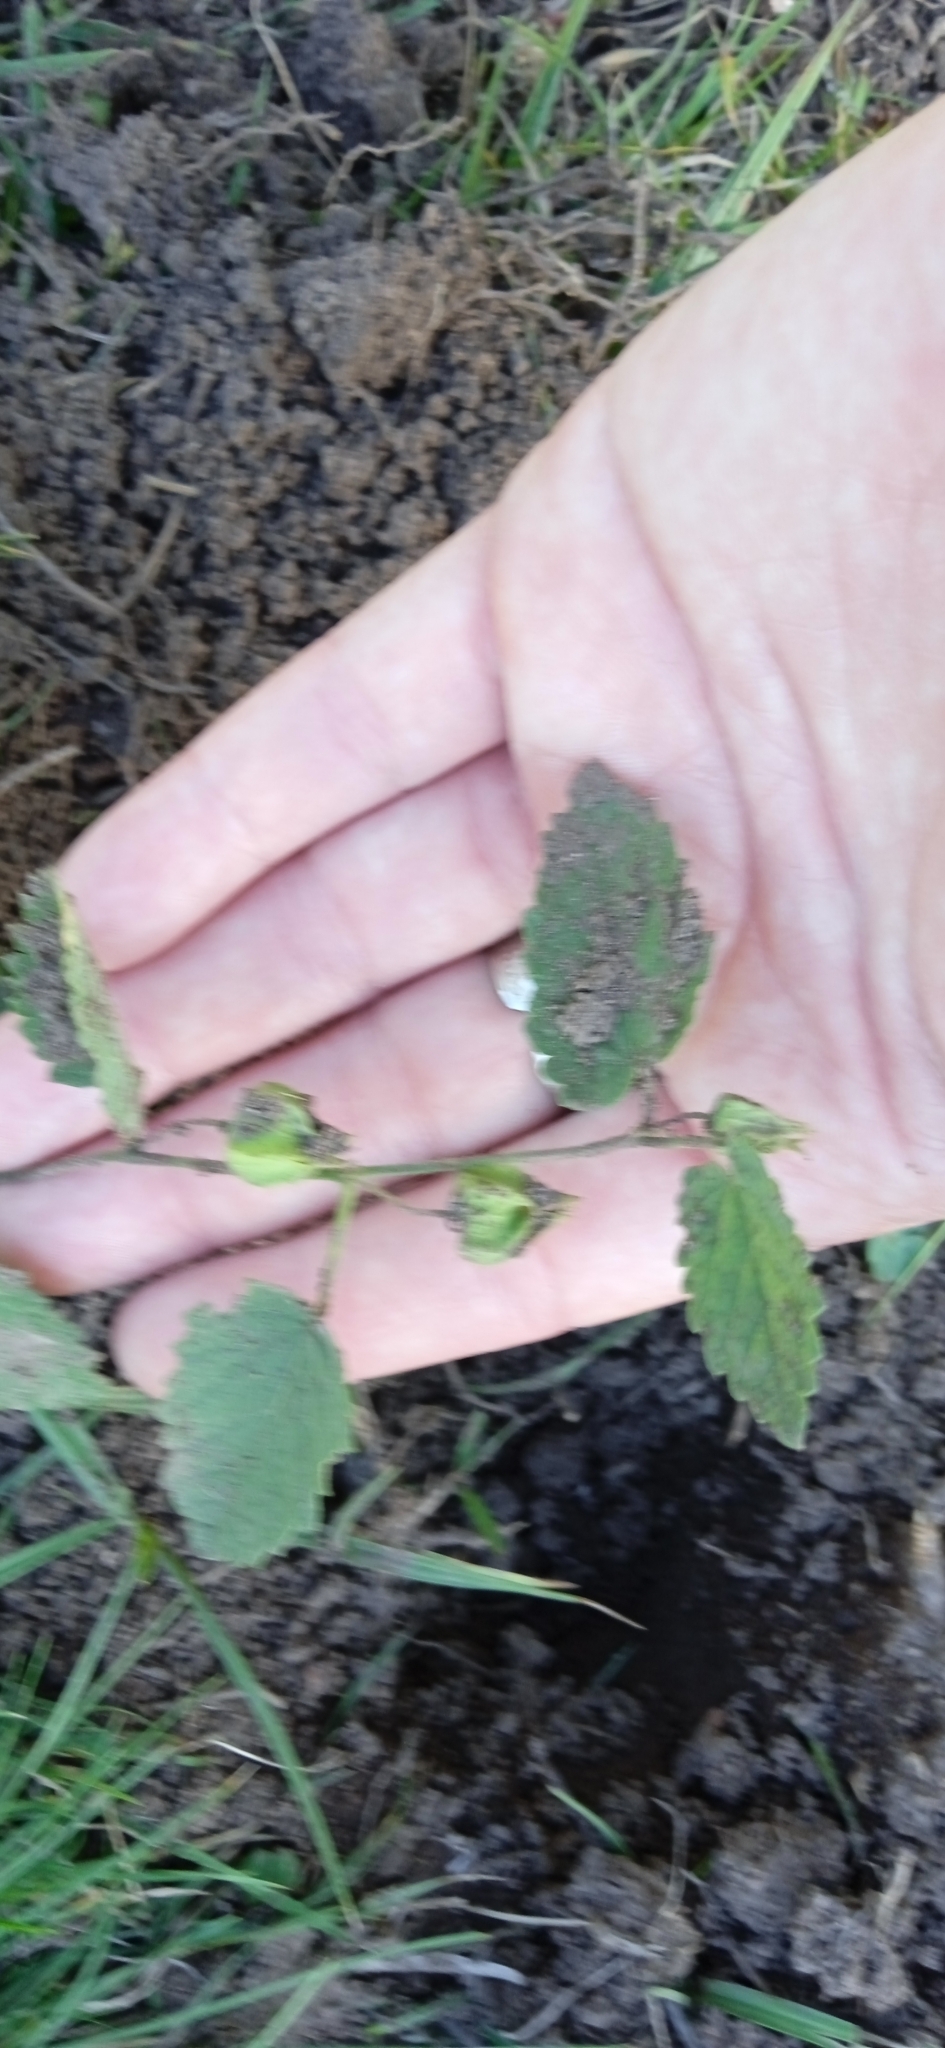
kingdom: Plantae
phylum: Tracheophyta
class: Magnoliopsida
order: Malvales
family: Malvaceae
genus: Krapovickasia
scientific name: Krapovickasia flavescens
